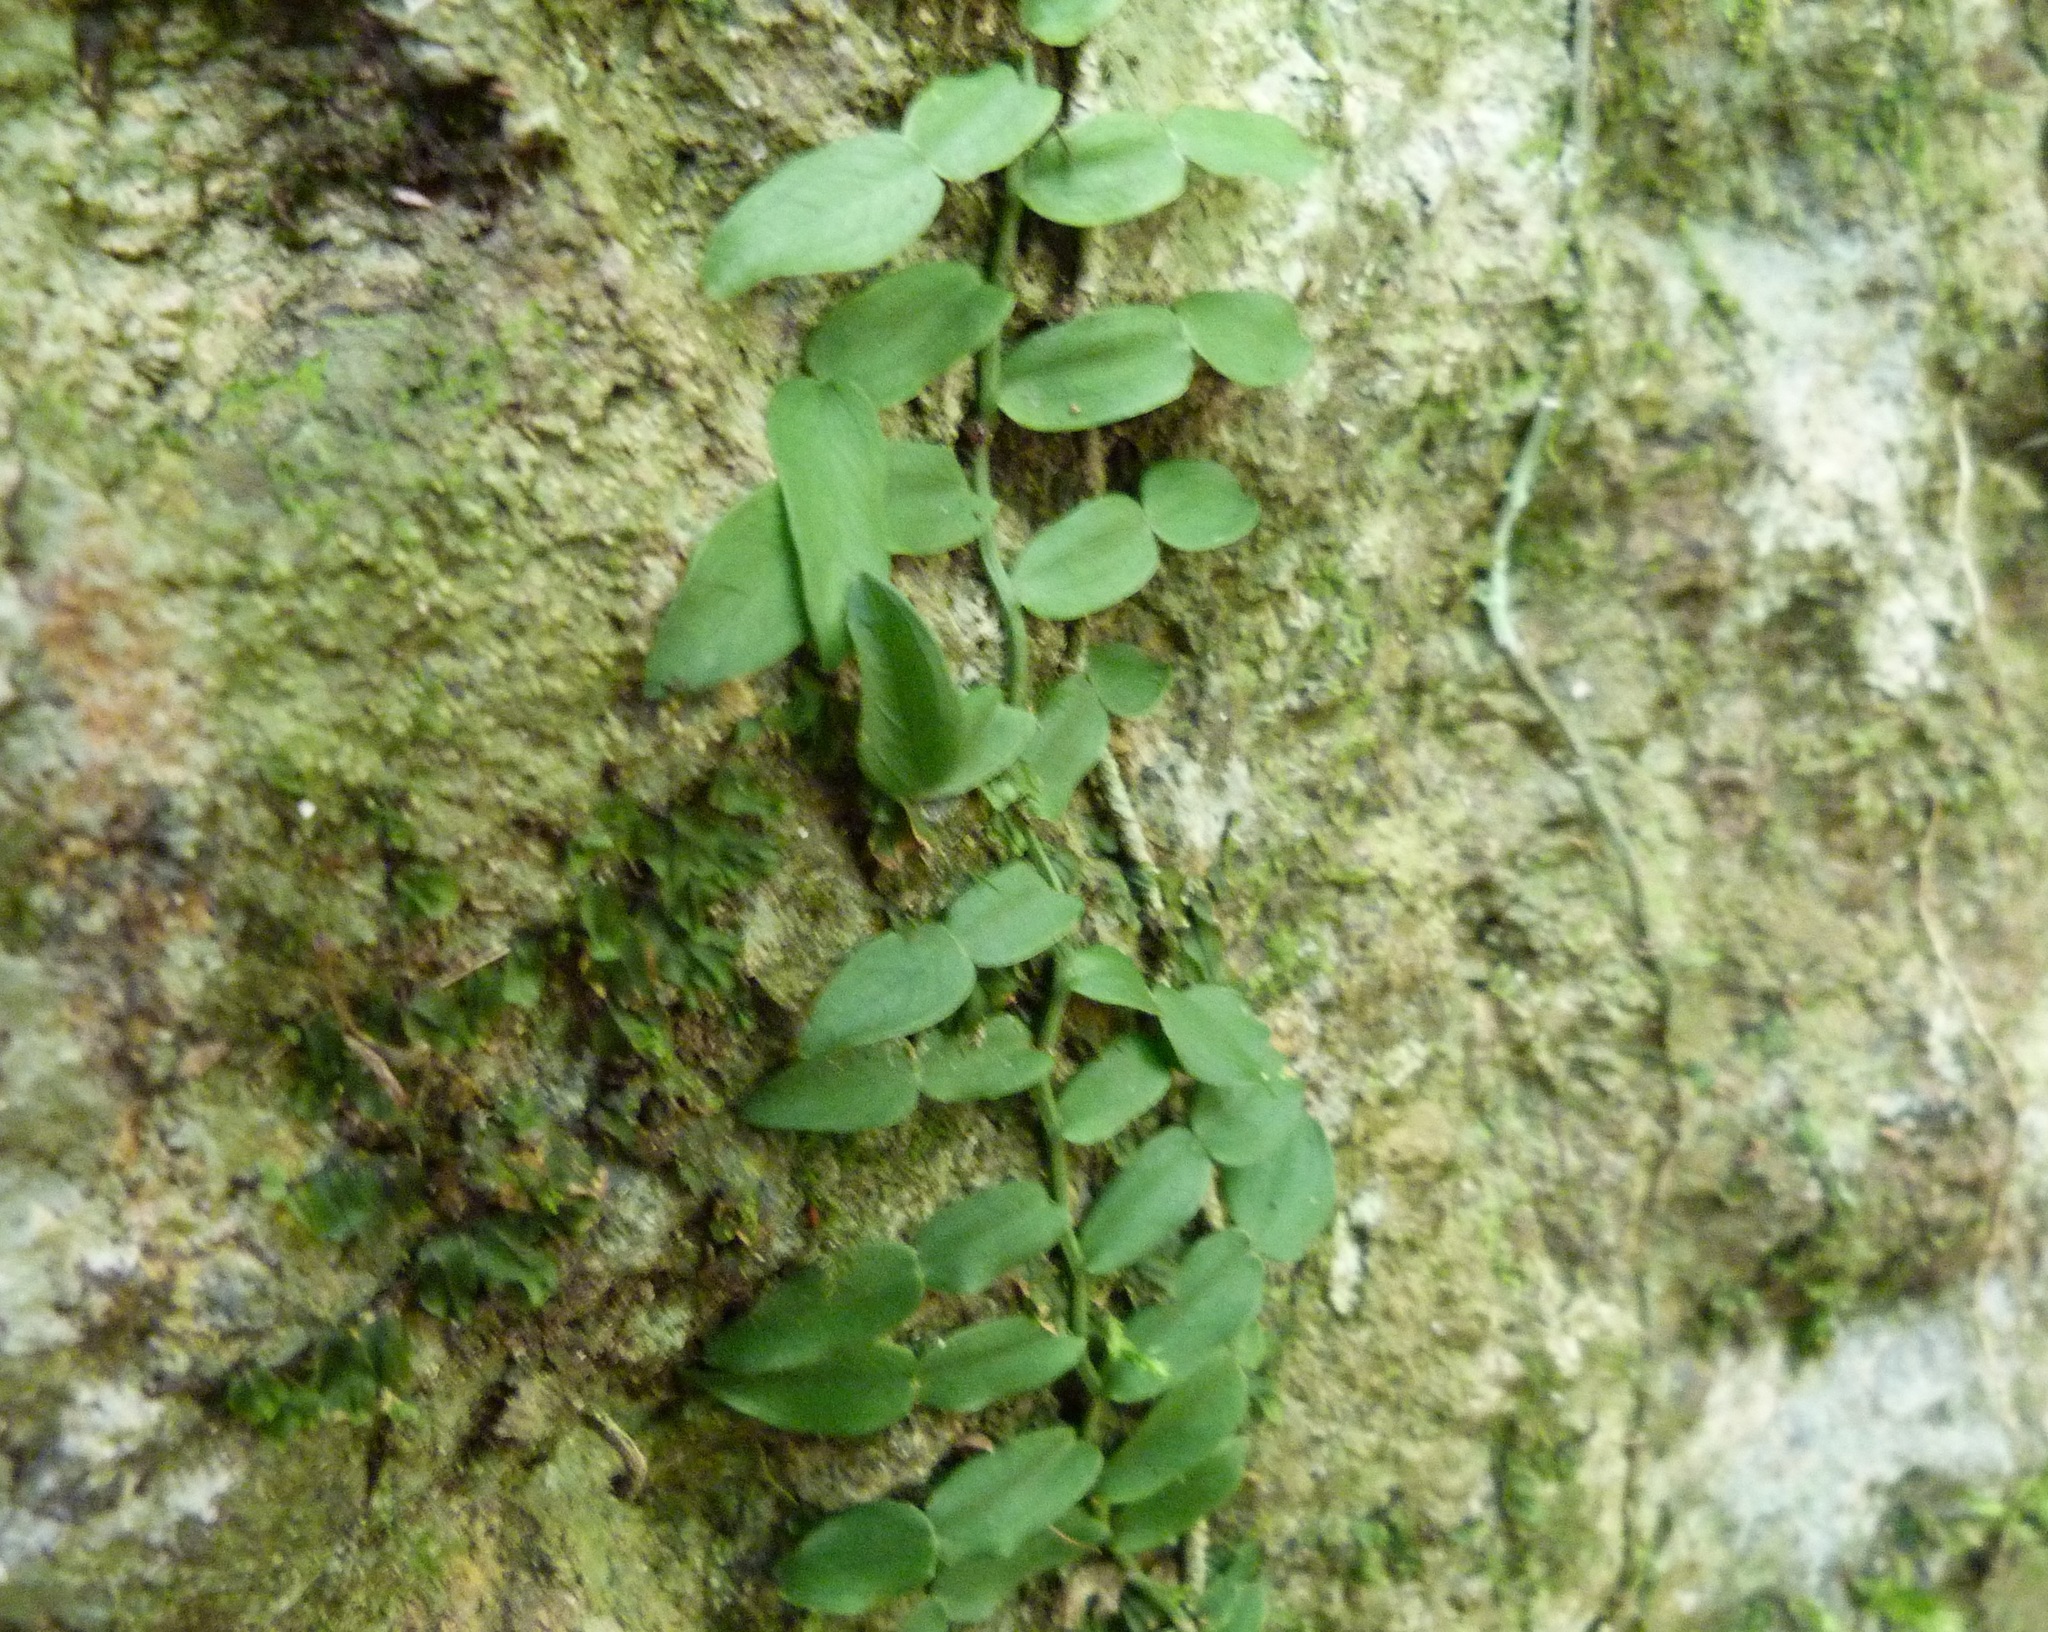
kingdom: Plantae
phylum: Tracheophyta
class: Liliopsida
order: Alismatales
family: Araceae
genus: Pothos
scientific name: Pothos longipes
